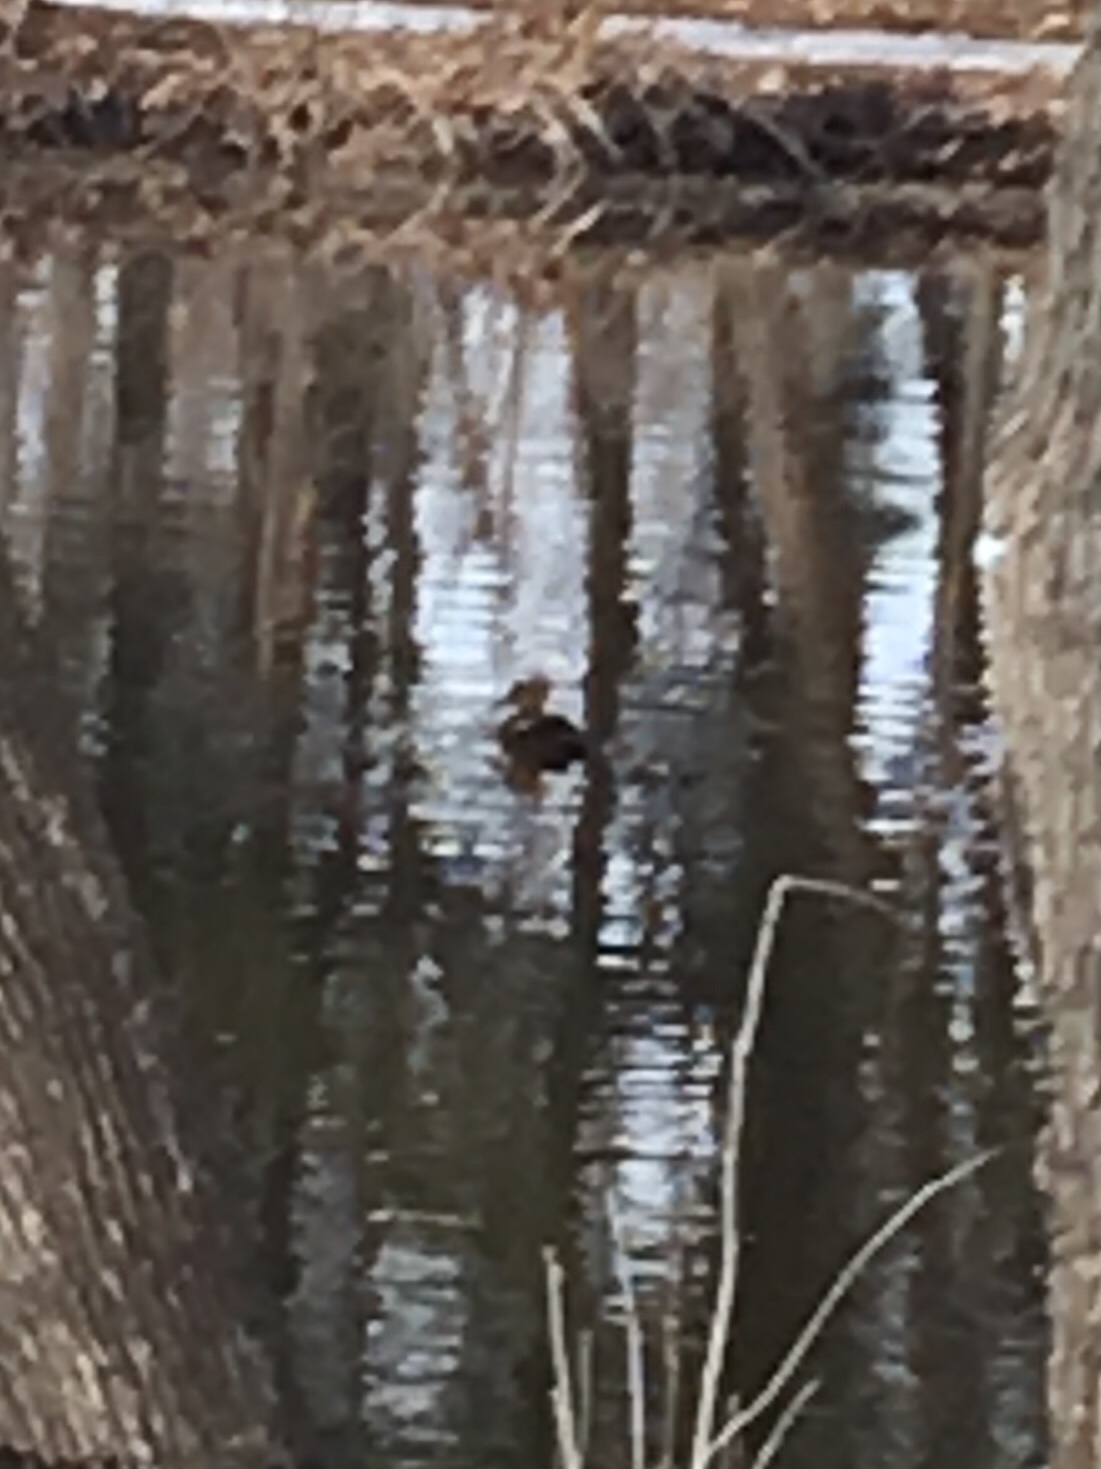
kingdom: Animalia
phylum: Chordata
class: Aves
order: Anseriformes
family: Anatidae
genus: Lophodytes
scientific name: Lophodytes cucullatus
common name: Hooded merganser
